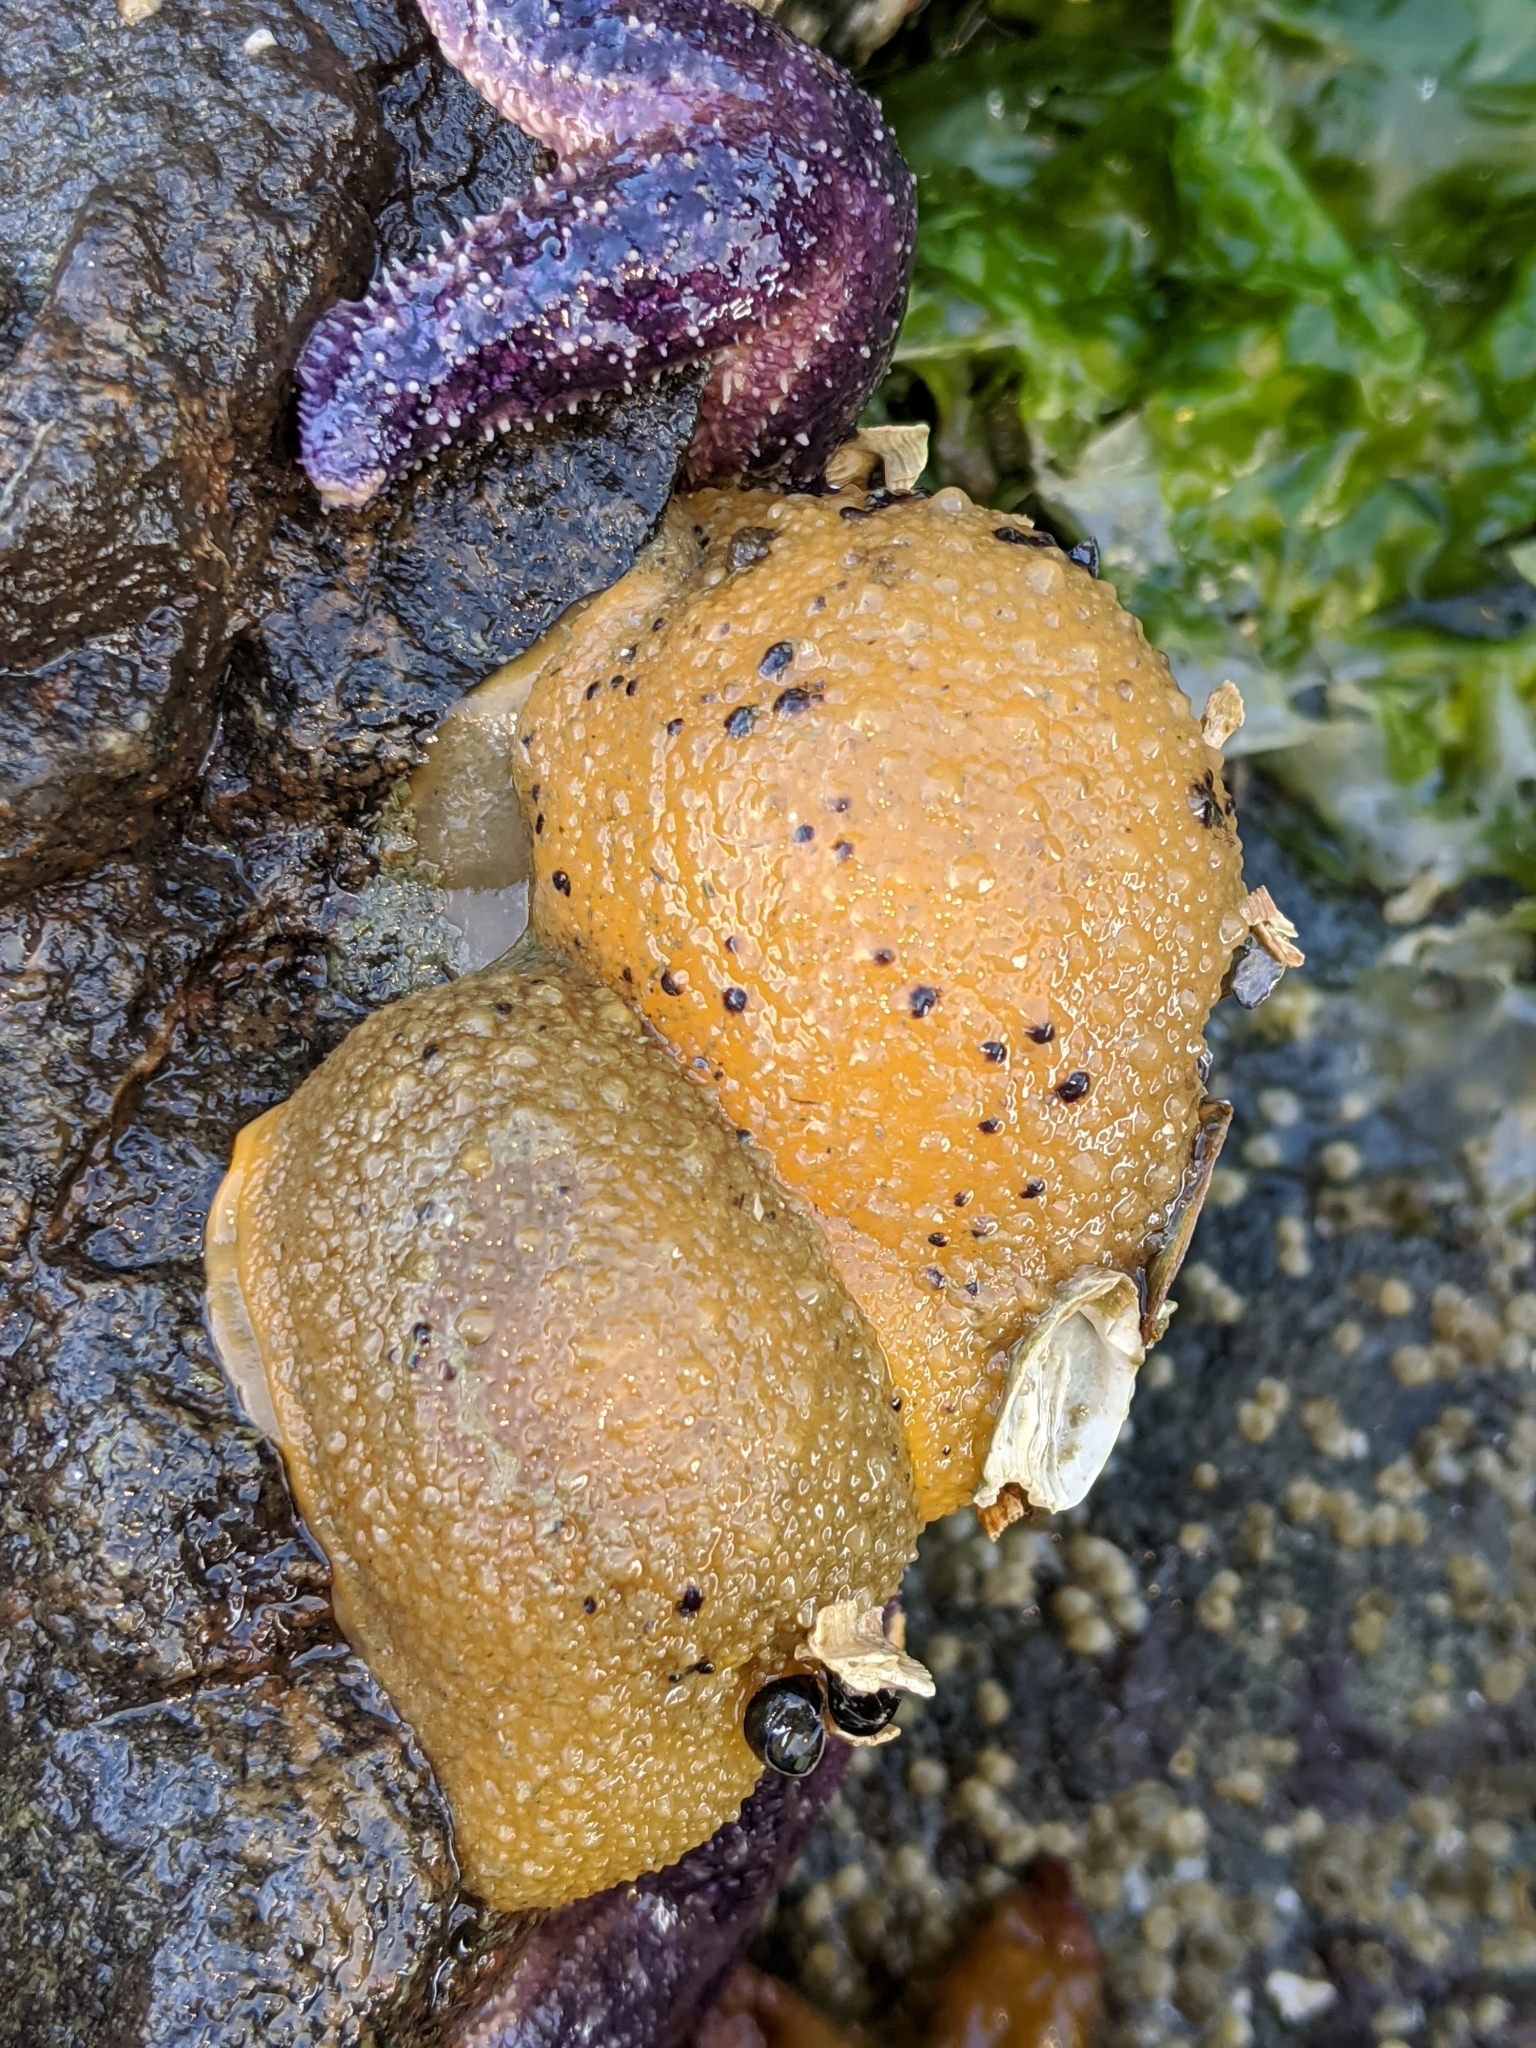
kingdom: Animalia
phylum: Mollusca
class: Gastropoda
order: Nudibranchia
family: Dorididae
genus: Doris
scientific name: Doris montereyensis
